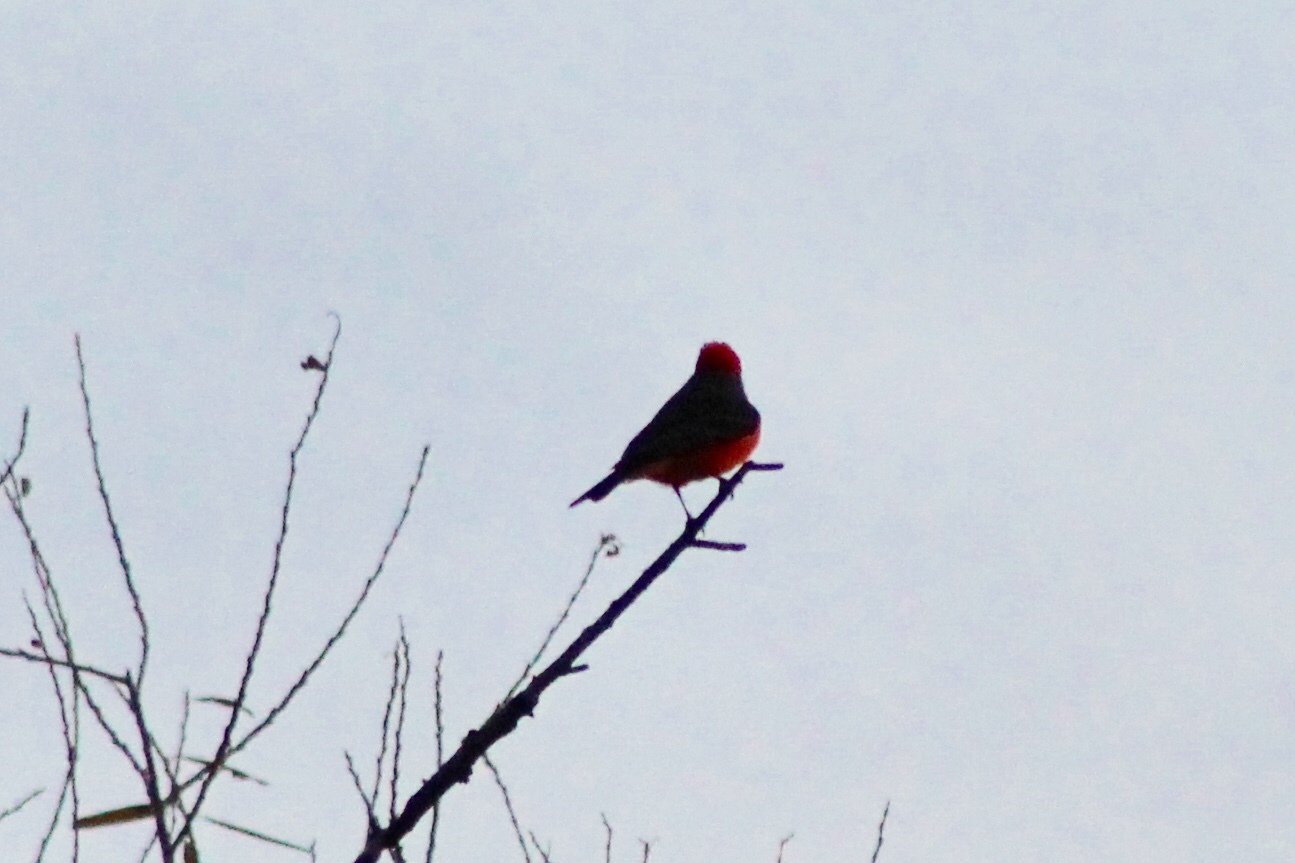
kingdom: Animalia
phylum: Chordata
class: Aves
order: Passeriformes
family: Tyrannidae
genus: Pyrocephalus
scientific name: Pyrocephalus rubinus
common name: Vermilion flycatcher
